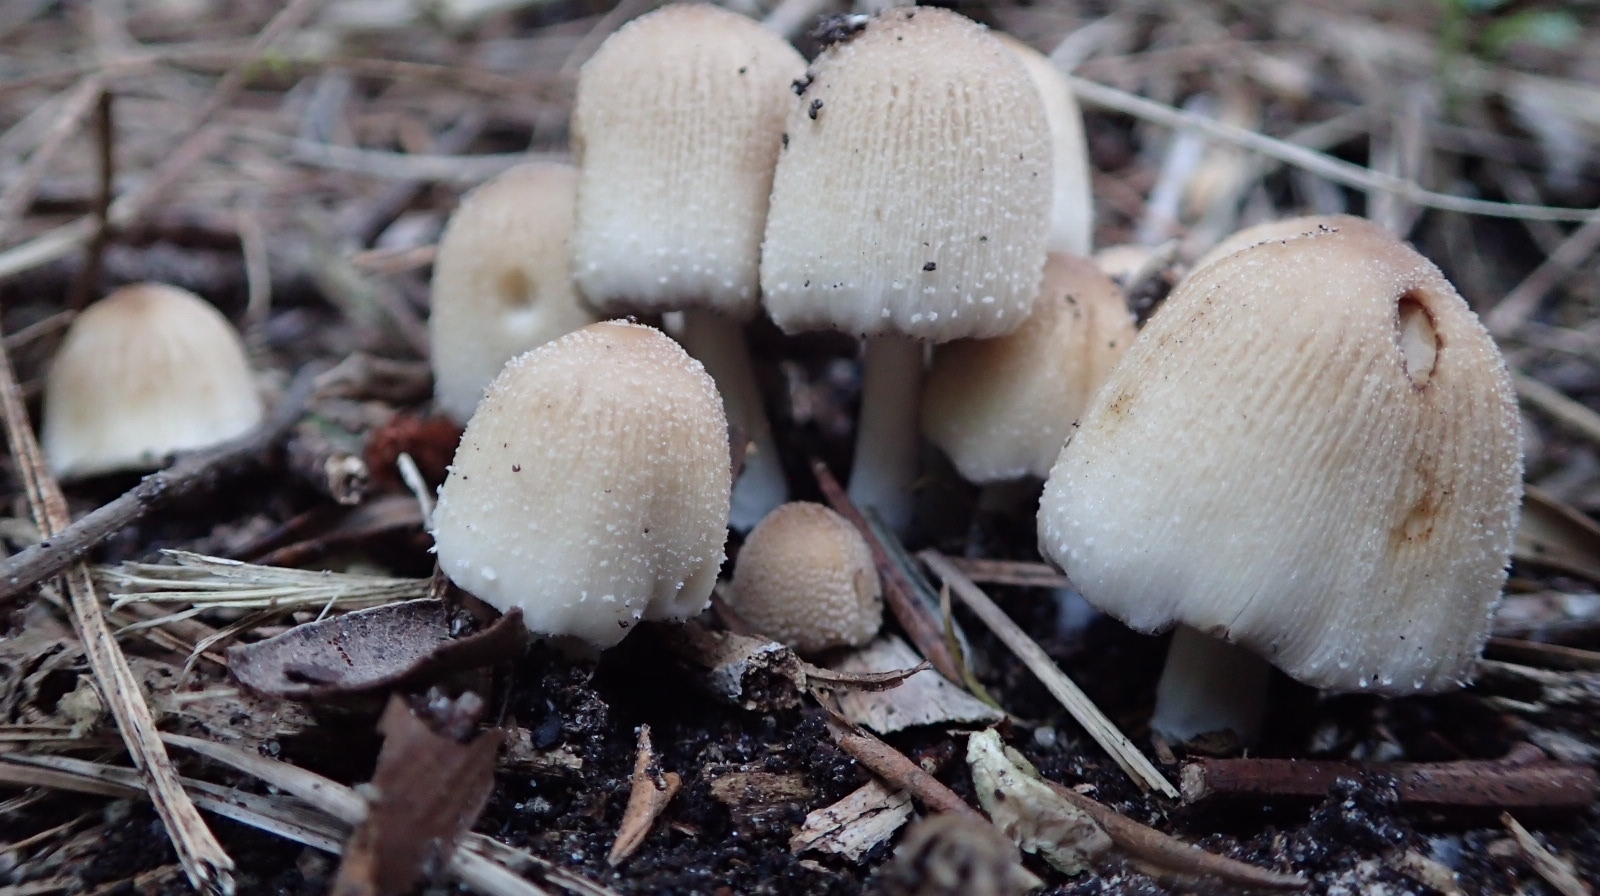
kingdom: Fungi
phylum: Basidiomycota
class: Agaricomycetes
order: Agaricales
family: Psathyrellaceae
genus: Coprinellus
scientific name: Coprinellus micaceus
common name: Glistening ink-cap
